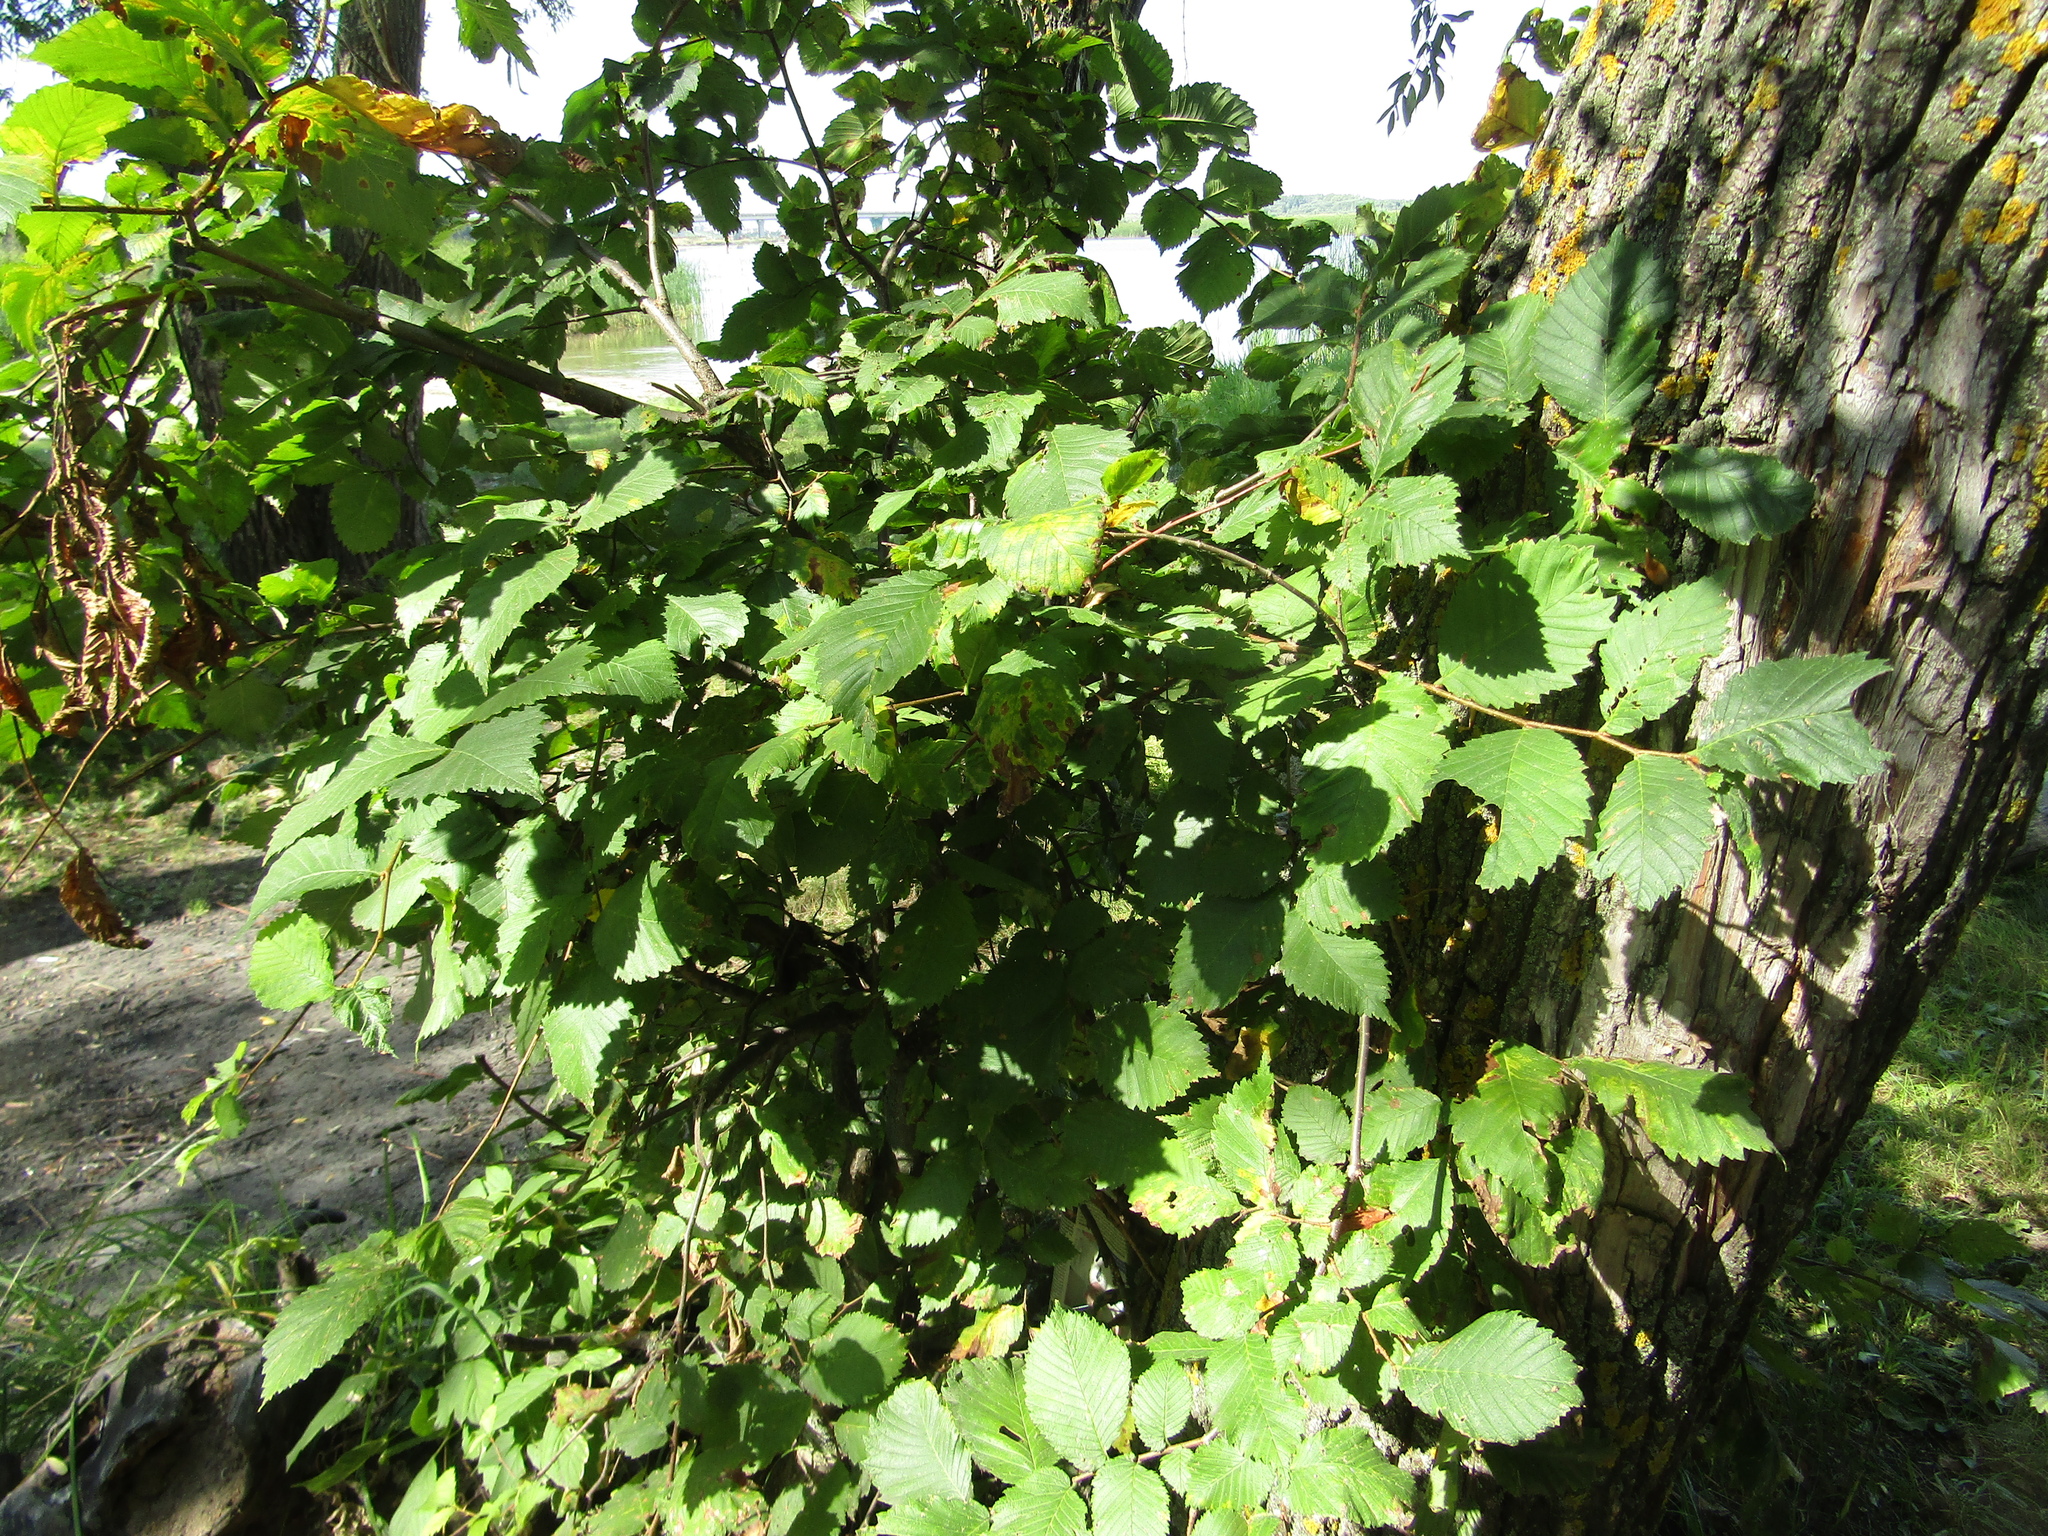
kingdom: Plantae
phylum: Tracheophyta
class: Magnoliopsida
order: Rosales
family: Ulmaceae
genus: Ulmus
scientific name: Ulmus laevis
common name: European white-elm
